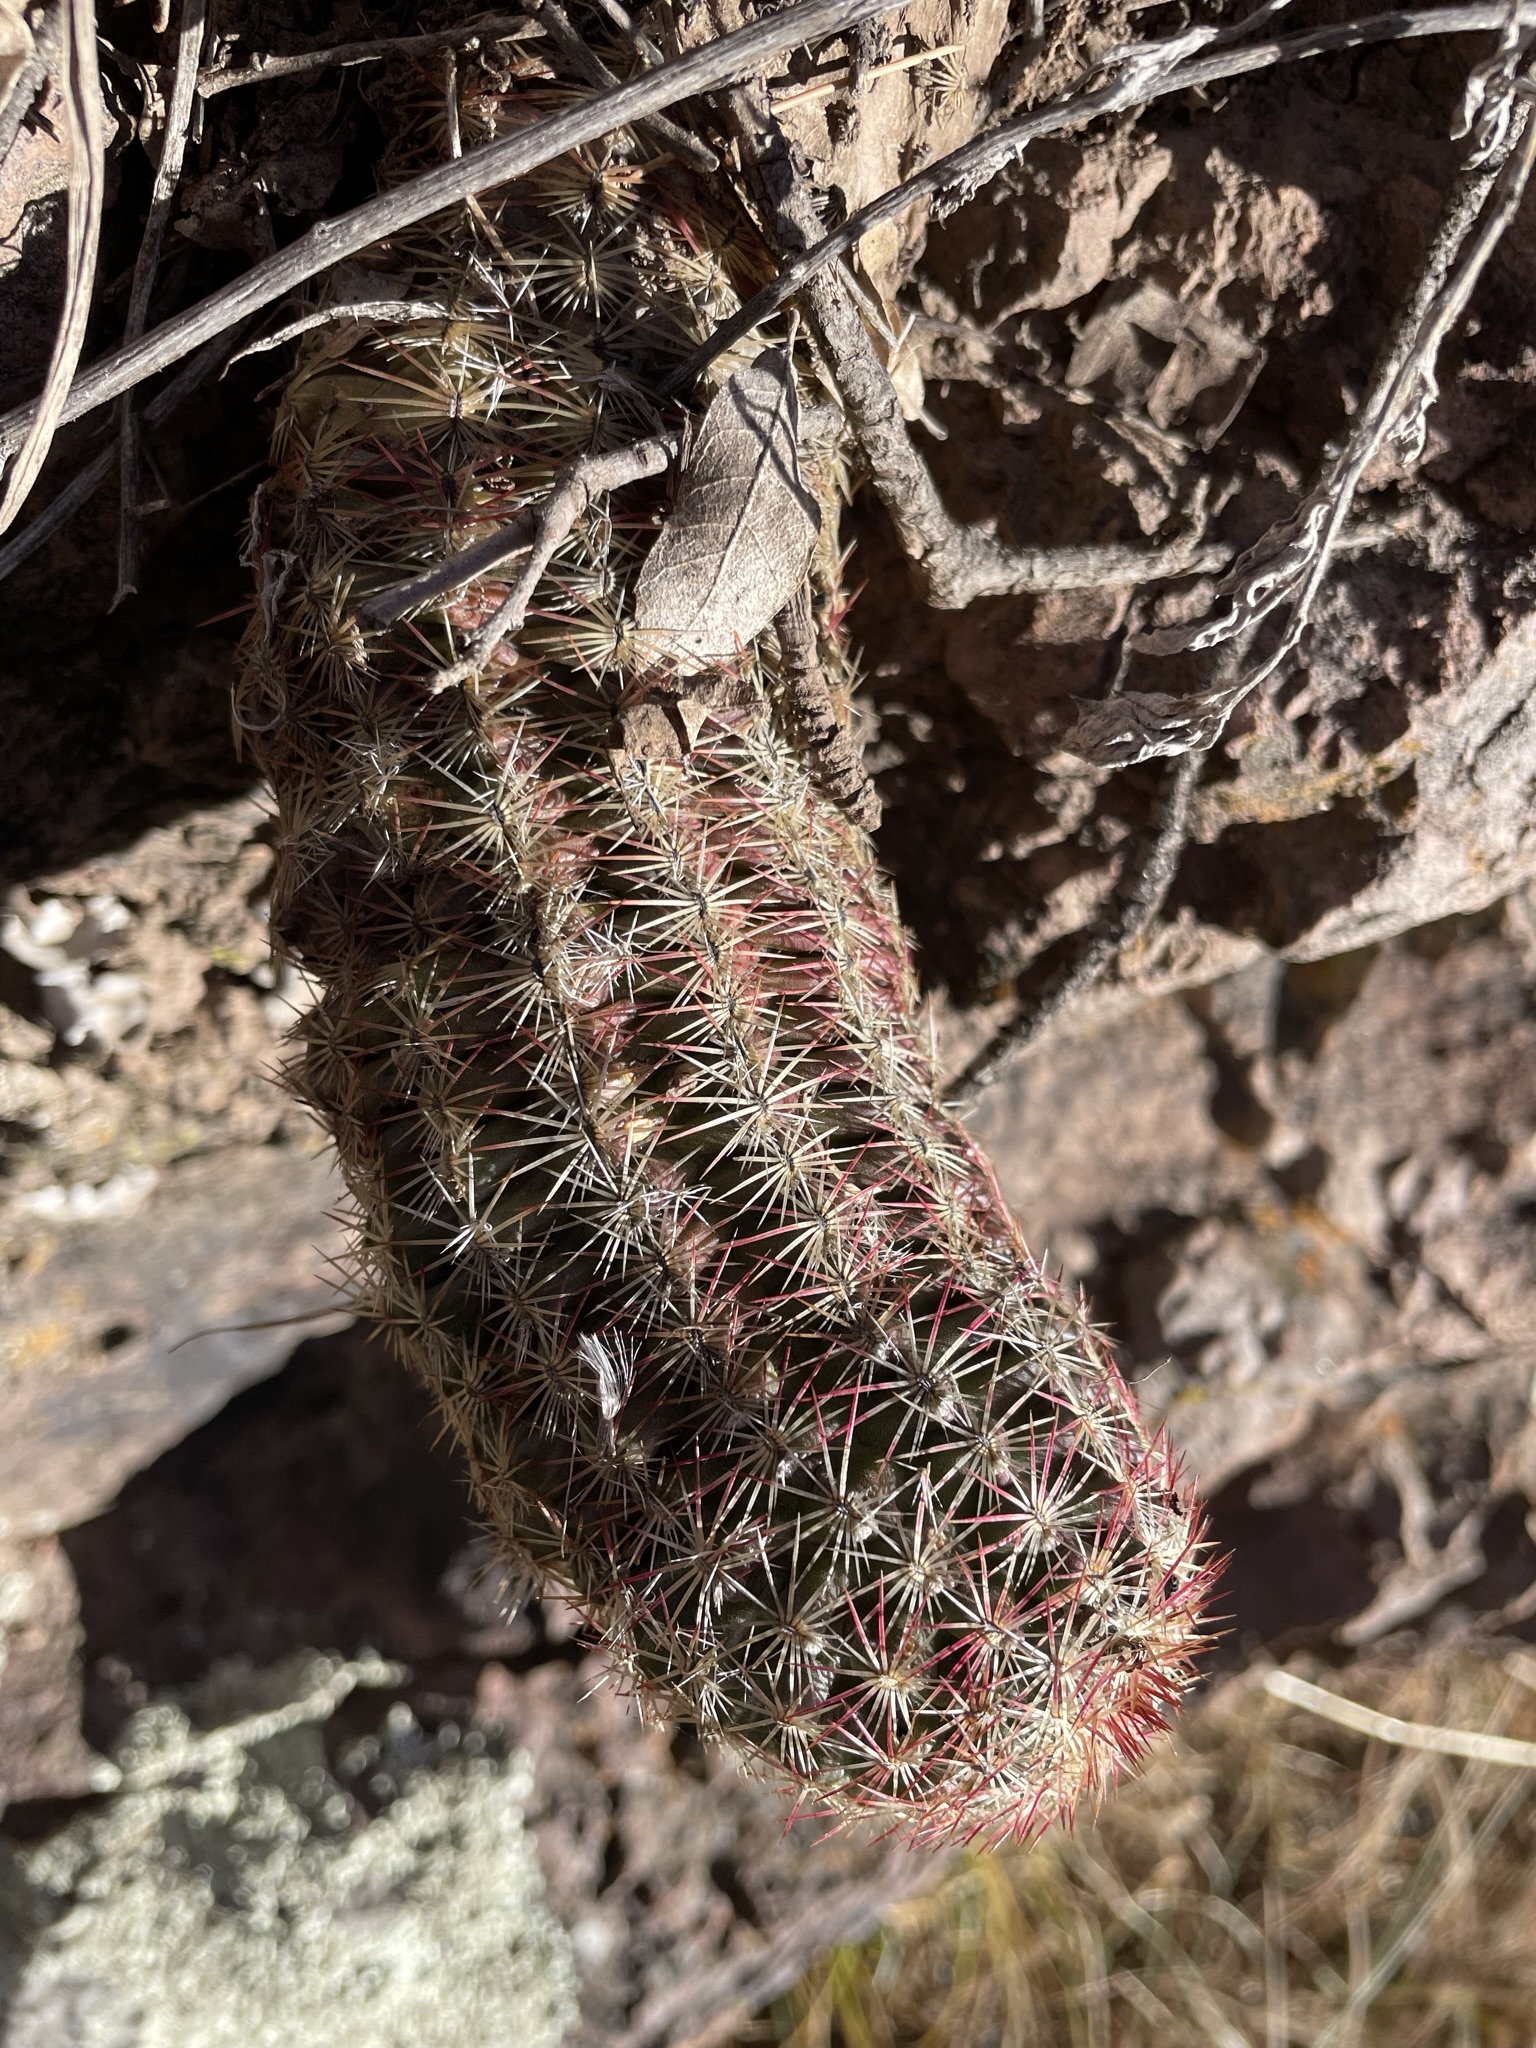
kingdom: Plantae
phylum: Tracheophyta
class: Magnoliopsida
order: Caryophyllales
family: Cactaceae
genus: Echinocereus
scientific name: Echinocereus viridiflorus
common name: Nylon hedgehog cactus
